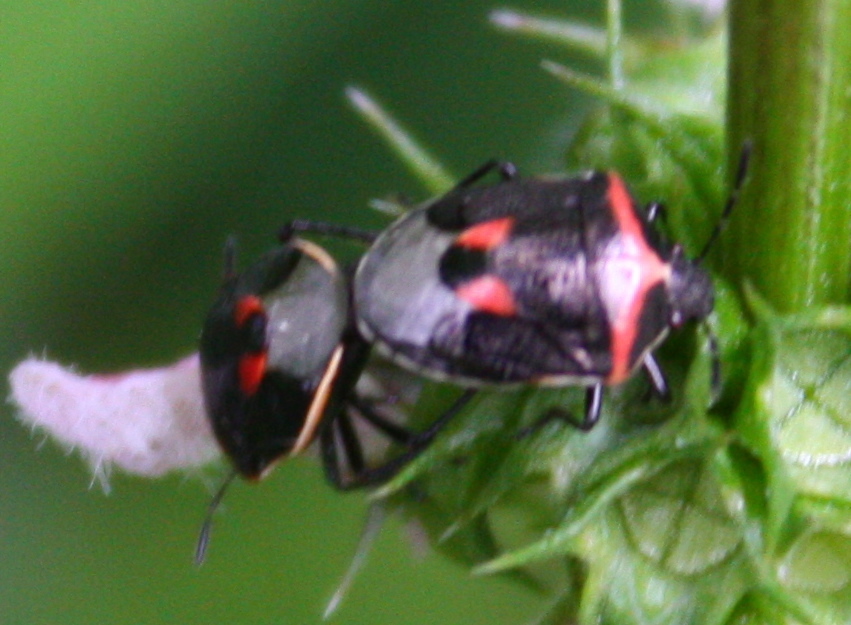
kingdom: Animalia
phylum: Arthropoda
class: Insecta
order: Hemiptera
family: Pentatomidae
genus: Cosmopepla
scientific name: Cosmopepla lintneriana
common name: Twice-stabbed stink bug
